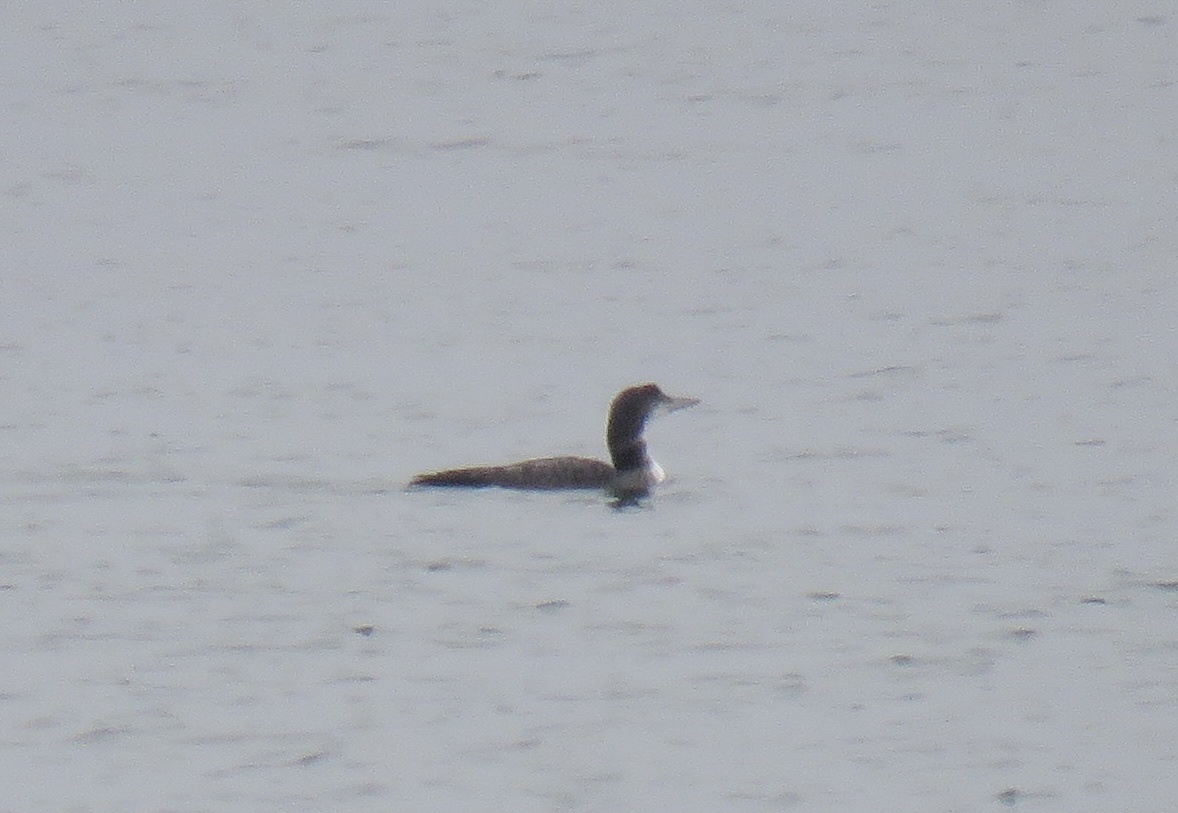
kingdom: Animalia
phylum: Chordata
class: Aves
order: Gaviiformes
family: Gaviidae
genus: Gavia
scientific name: Gavia immer
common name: Common loon
